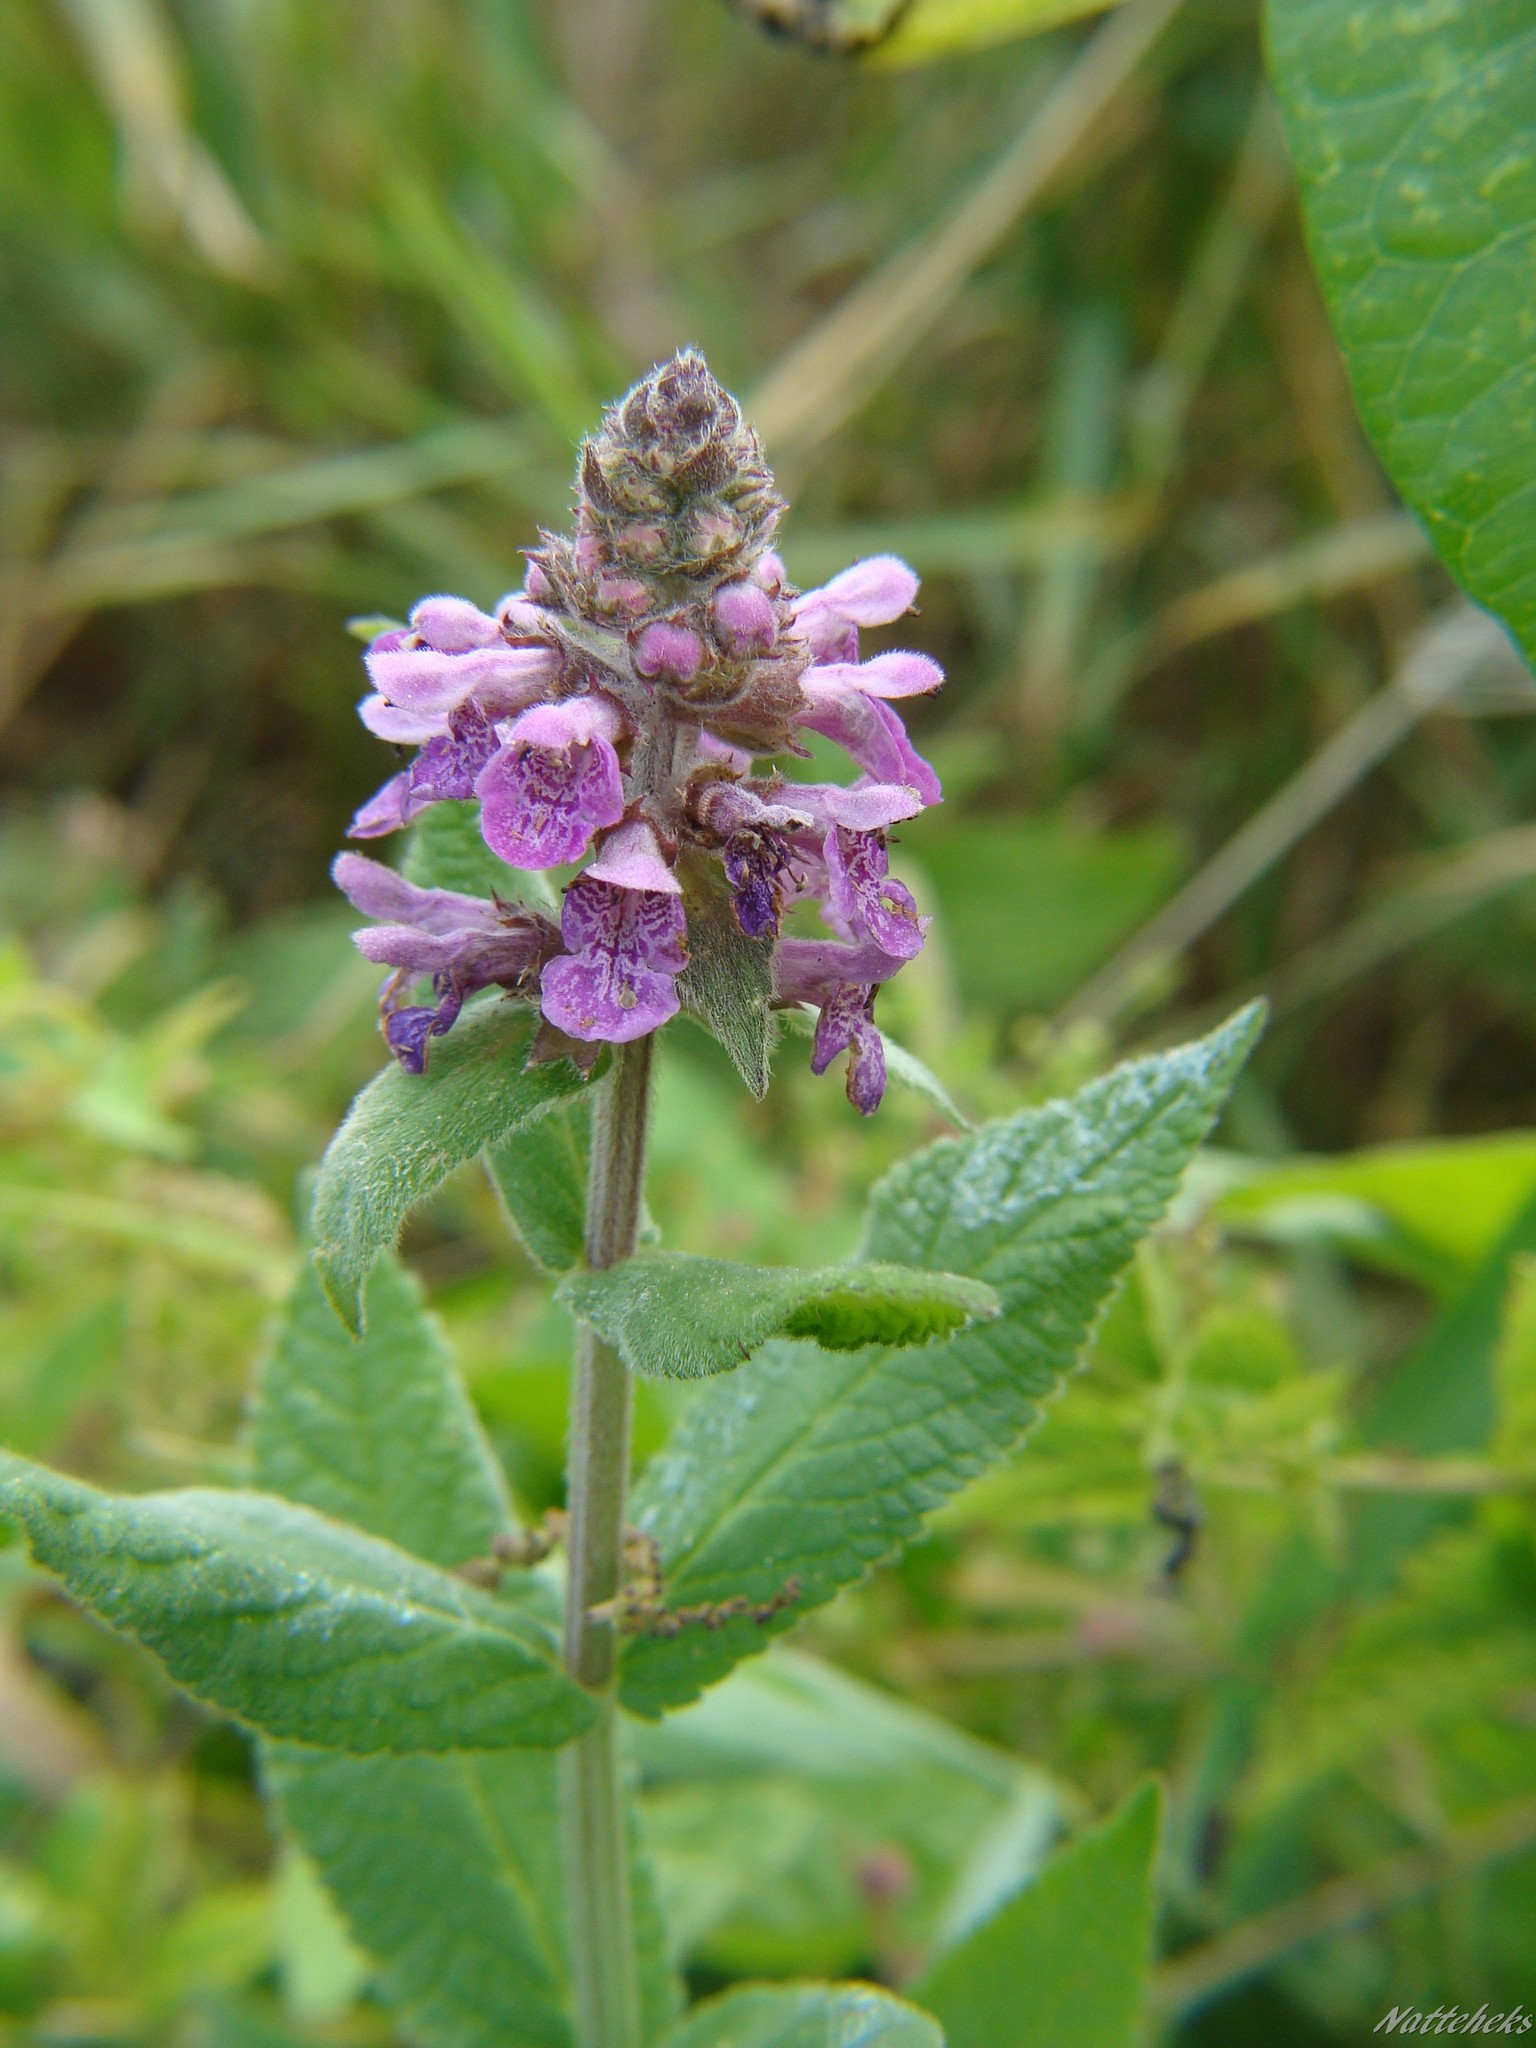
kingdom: Plantae
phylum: Tracheophyta
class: Magnoliopsida
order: Lamiales
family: Lamiaceae
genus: Stachys
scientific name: Stachys palustris
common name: Marsh woundwort
